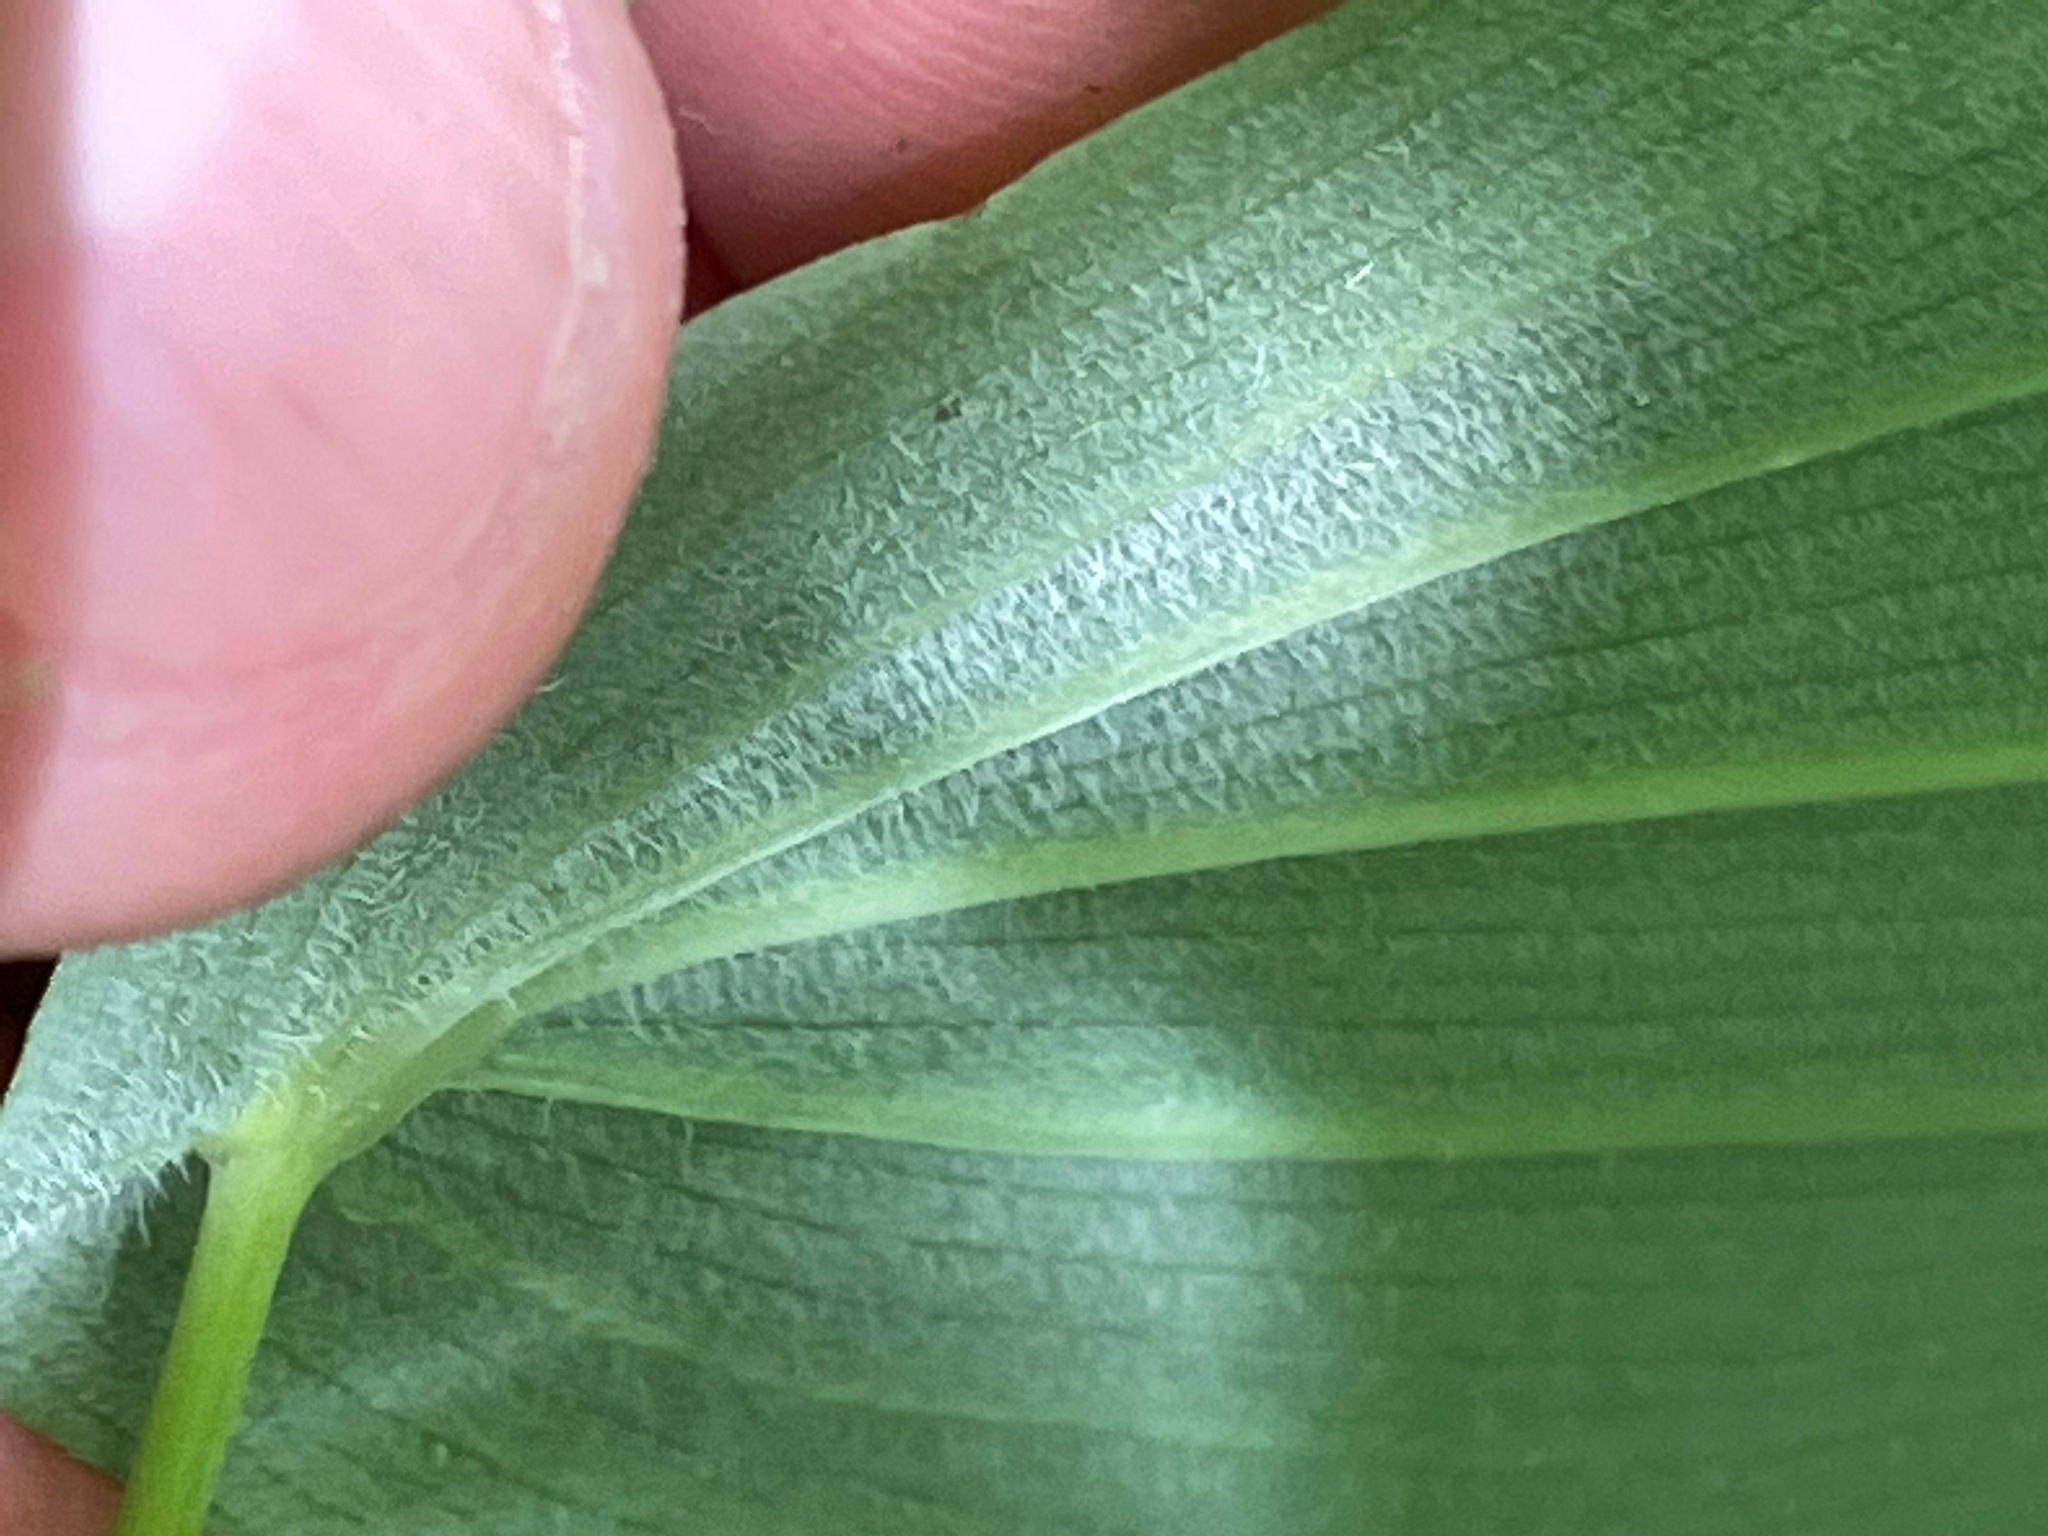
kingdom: Plantae
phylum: Tracheophyta
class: Liliopsida
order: Liliales
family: Colchicaceae
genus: Uvularia
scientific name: Uvularia grandiflora
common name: Bellwort
